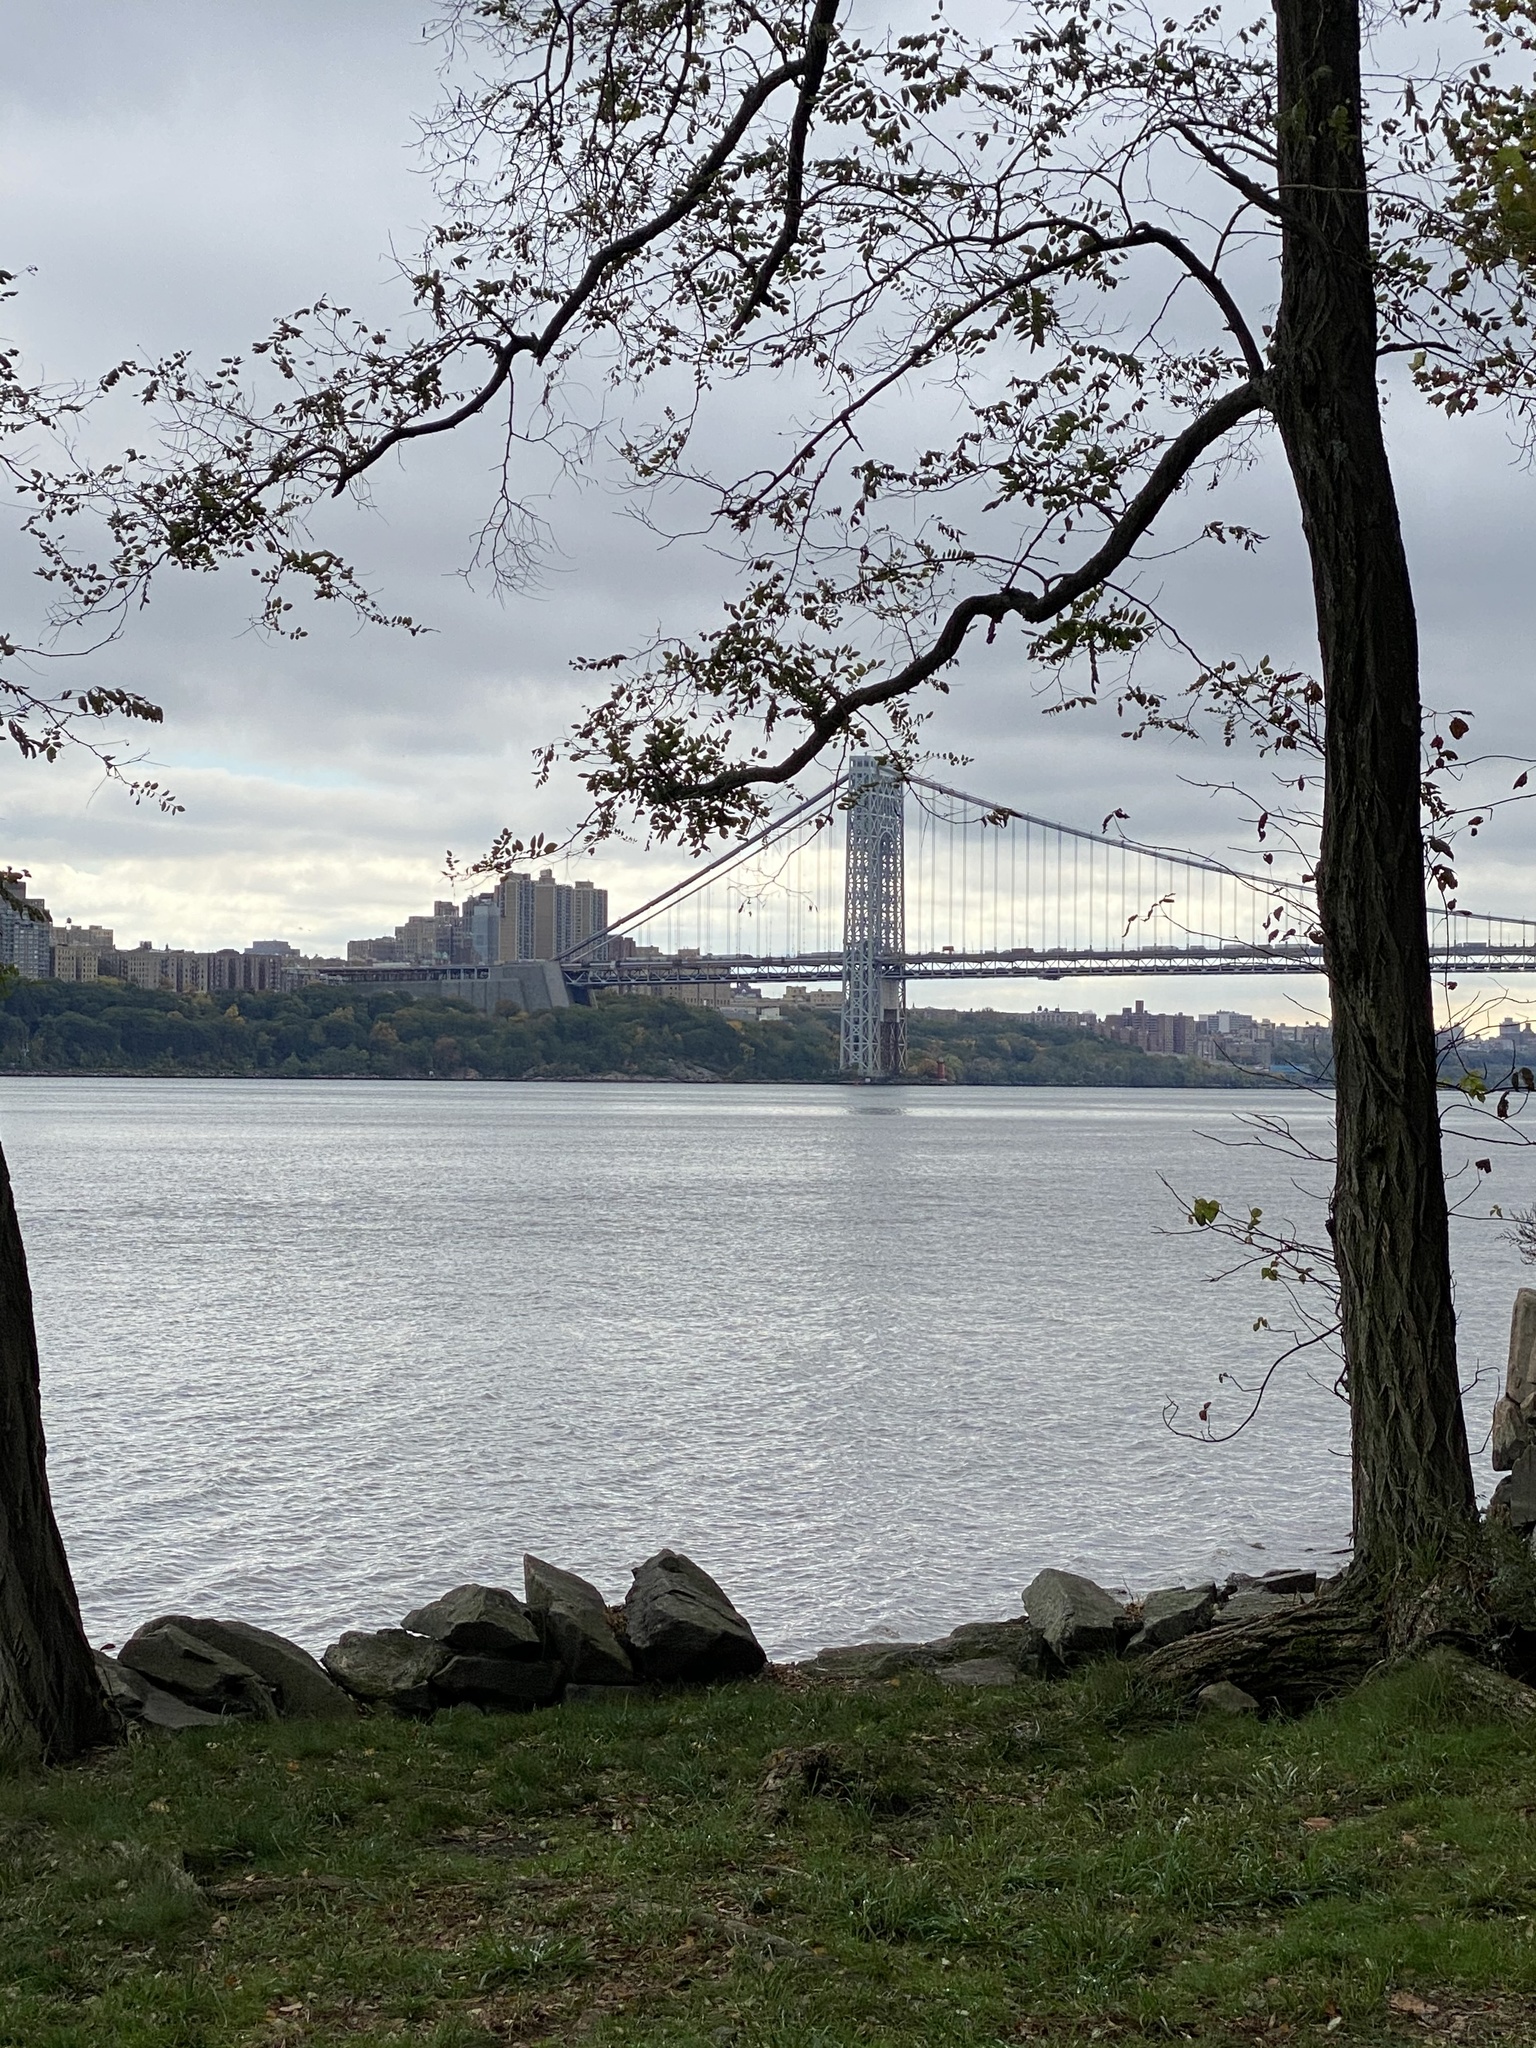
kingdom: Plantae
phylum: Tracheophyta
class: Magnoliopsida
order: Lamiales
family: Plantaginaceae
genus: Plantago
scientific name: Plantago lanceolata
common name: Ribwort plantain
